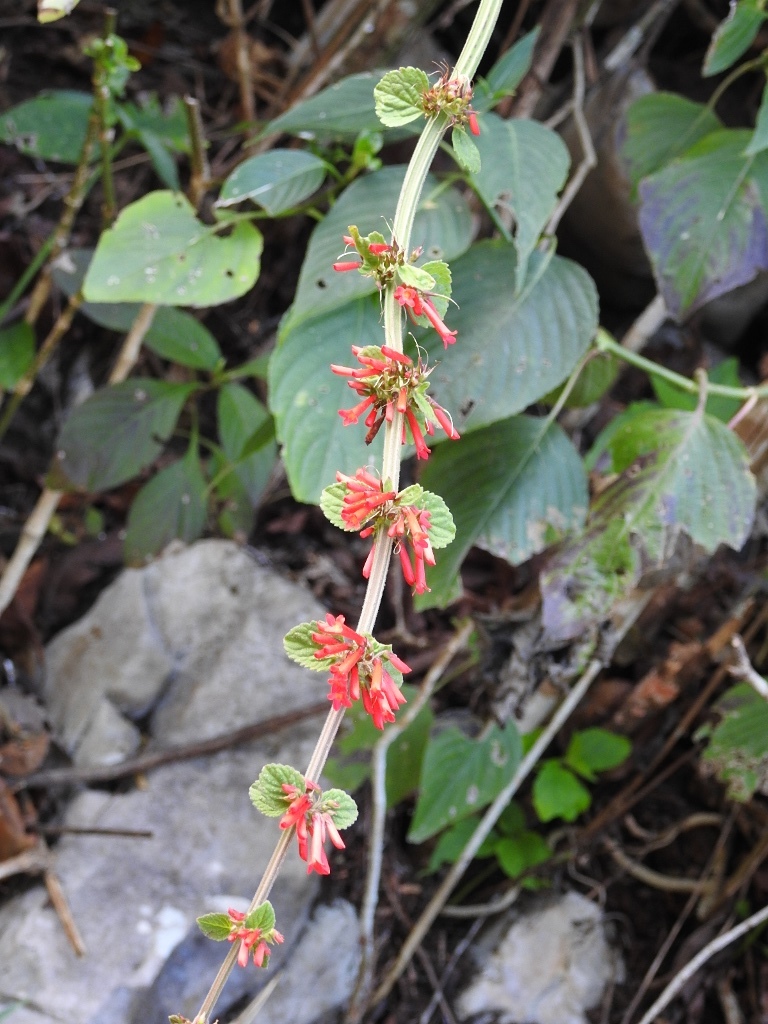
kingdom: Plantae
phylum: Tracheophyta
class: Magnoliopsida
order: Lamiales
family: Plantaginaceae
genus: Russelia
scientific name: Russelia sarmentosa
